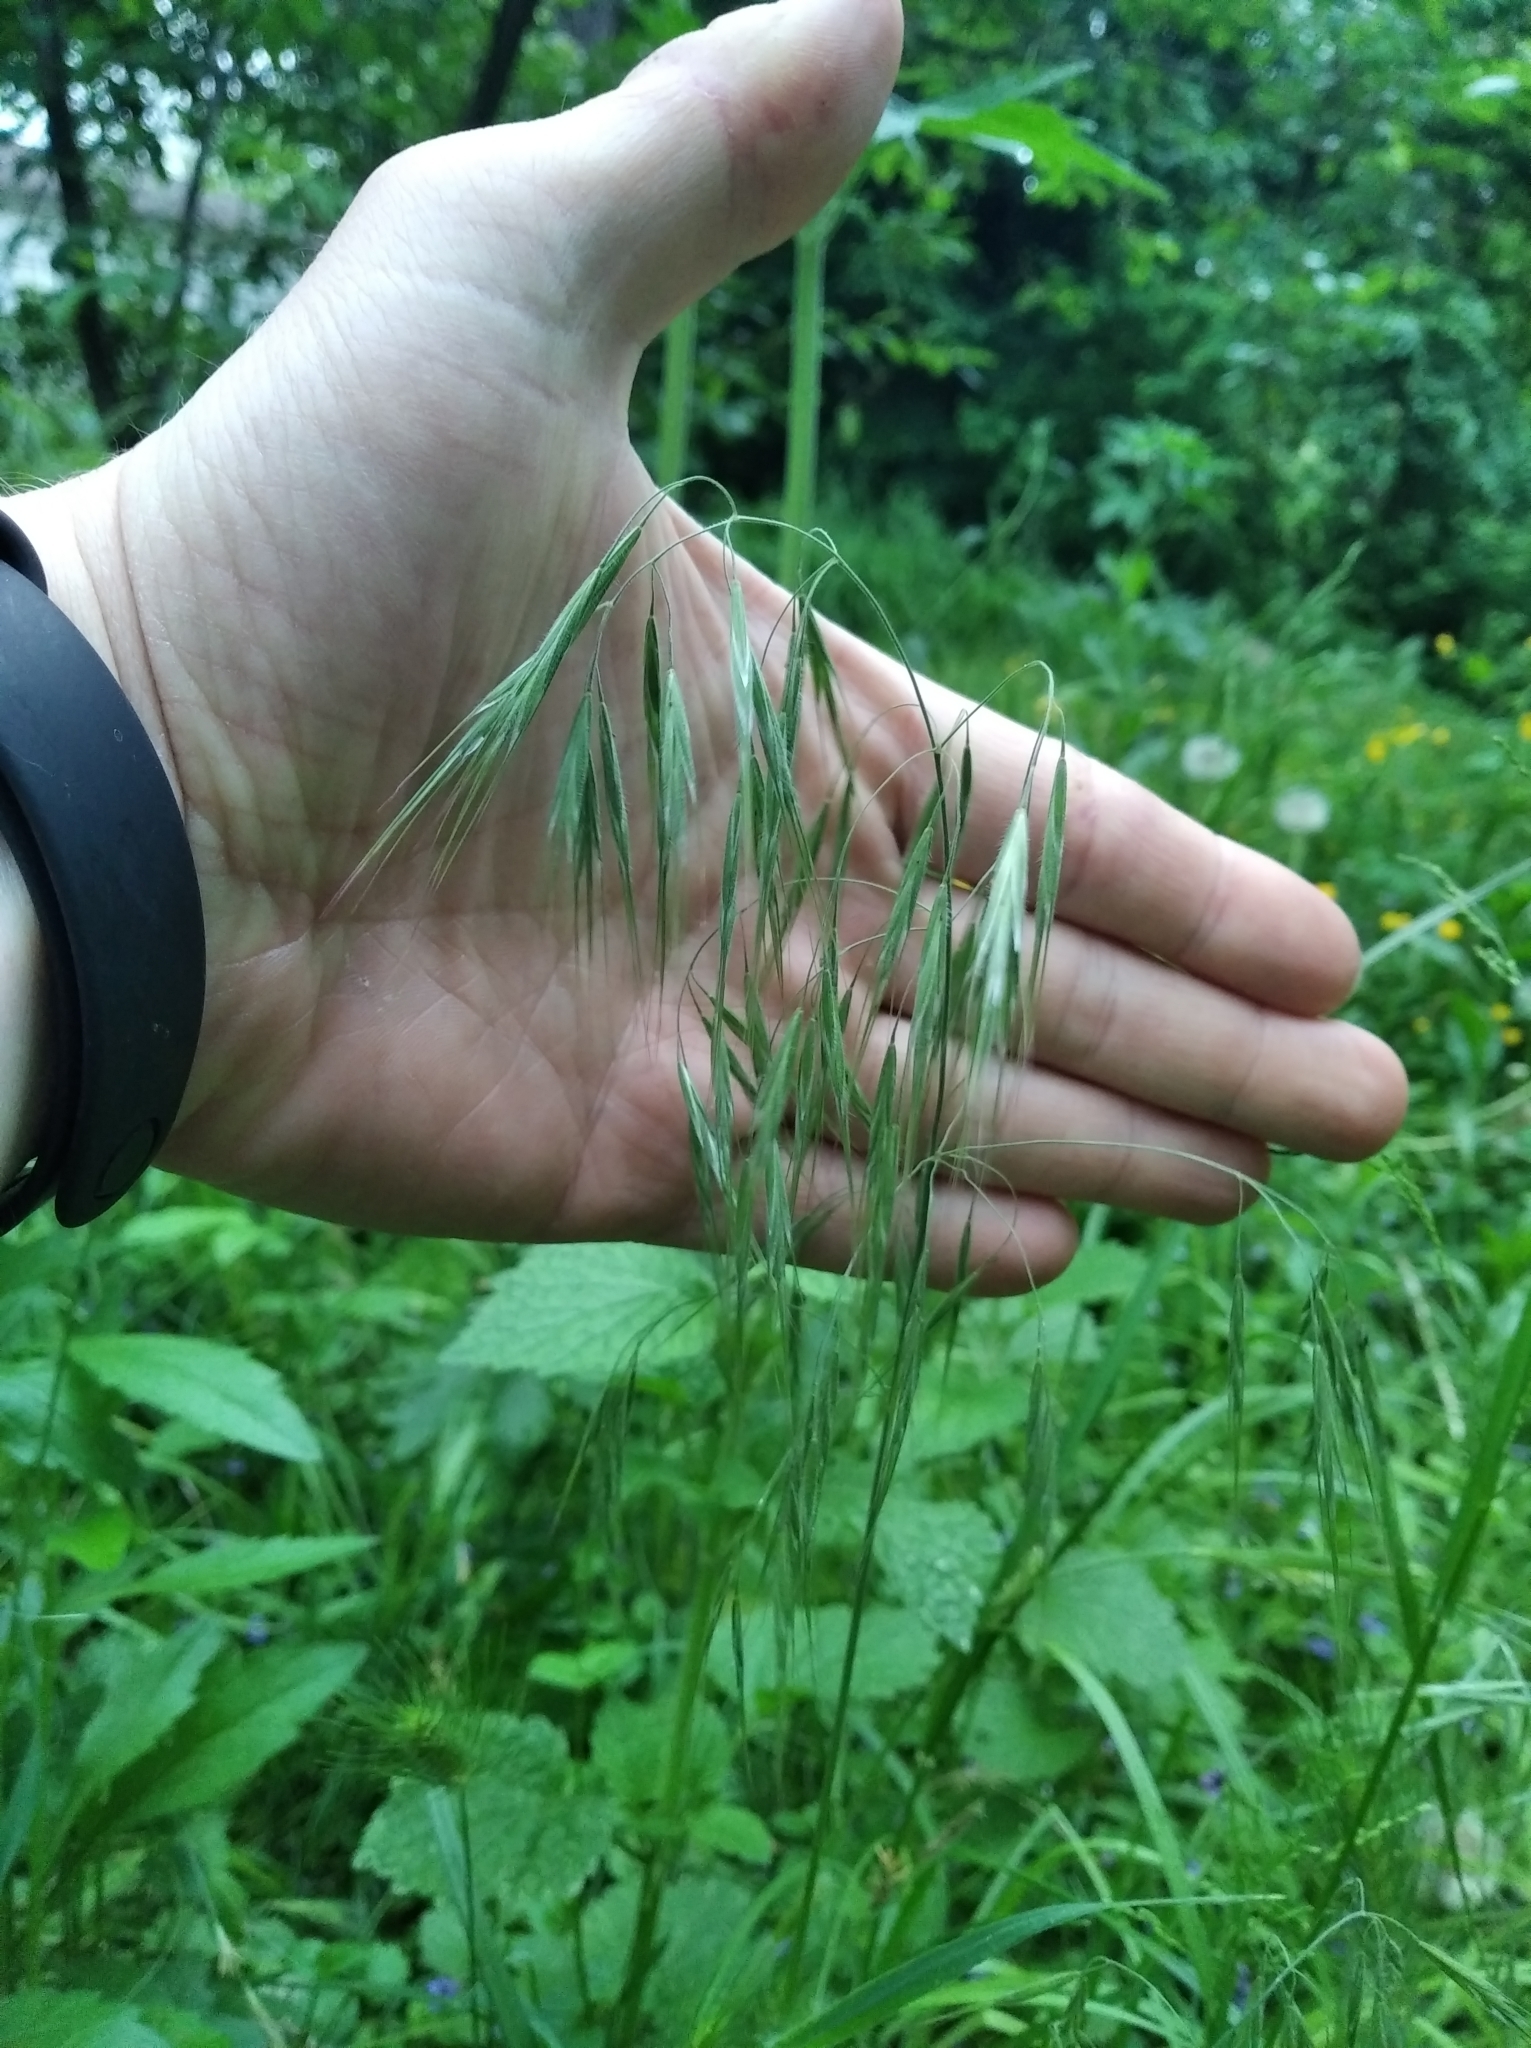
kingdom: Plantae
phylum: Tracheophyta
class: Liliopsida
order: Poales
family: Poaceae
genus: Bromus
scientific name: Bromus tectorum
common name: Cheatgrass
